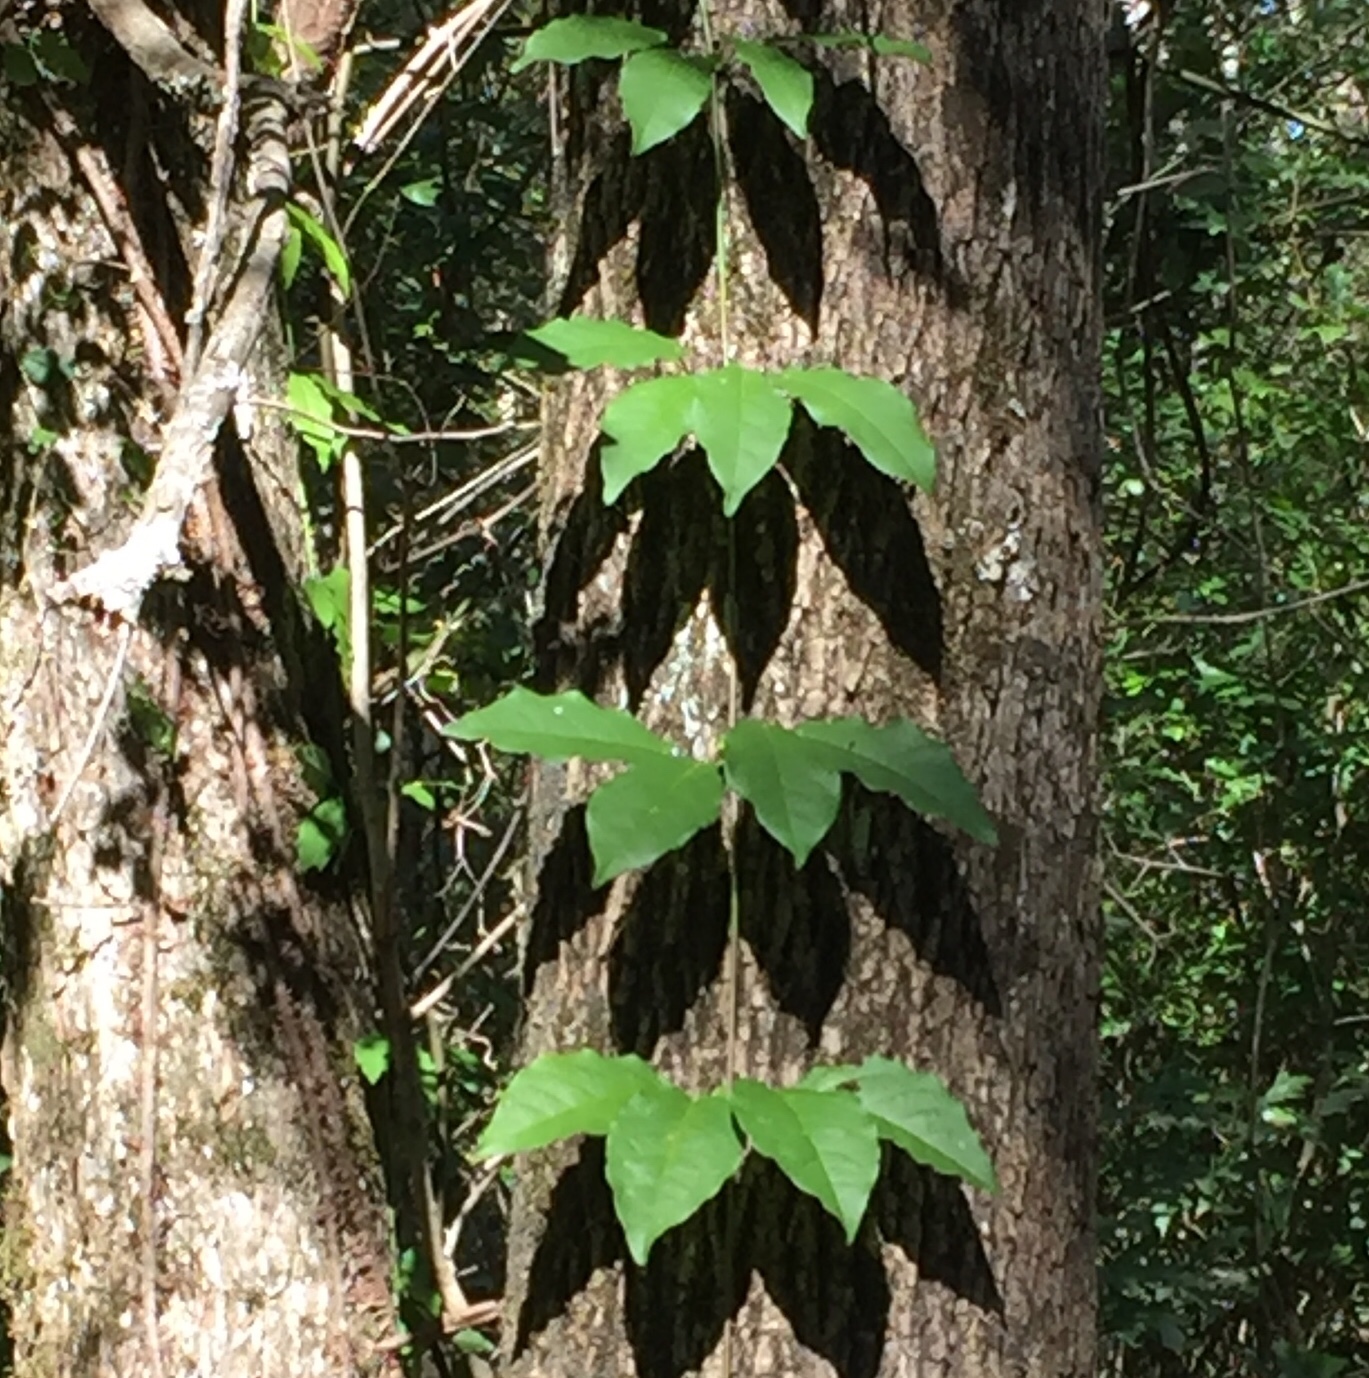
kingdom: Plantae
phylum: Tracheophyta
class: Magnoliopsida
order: Lamiales
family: Bignoniaceae
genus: Bignonia
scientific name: Bignonia capreolata
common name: Crossvine
